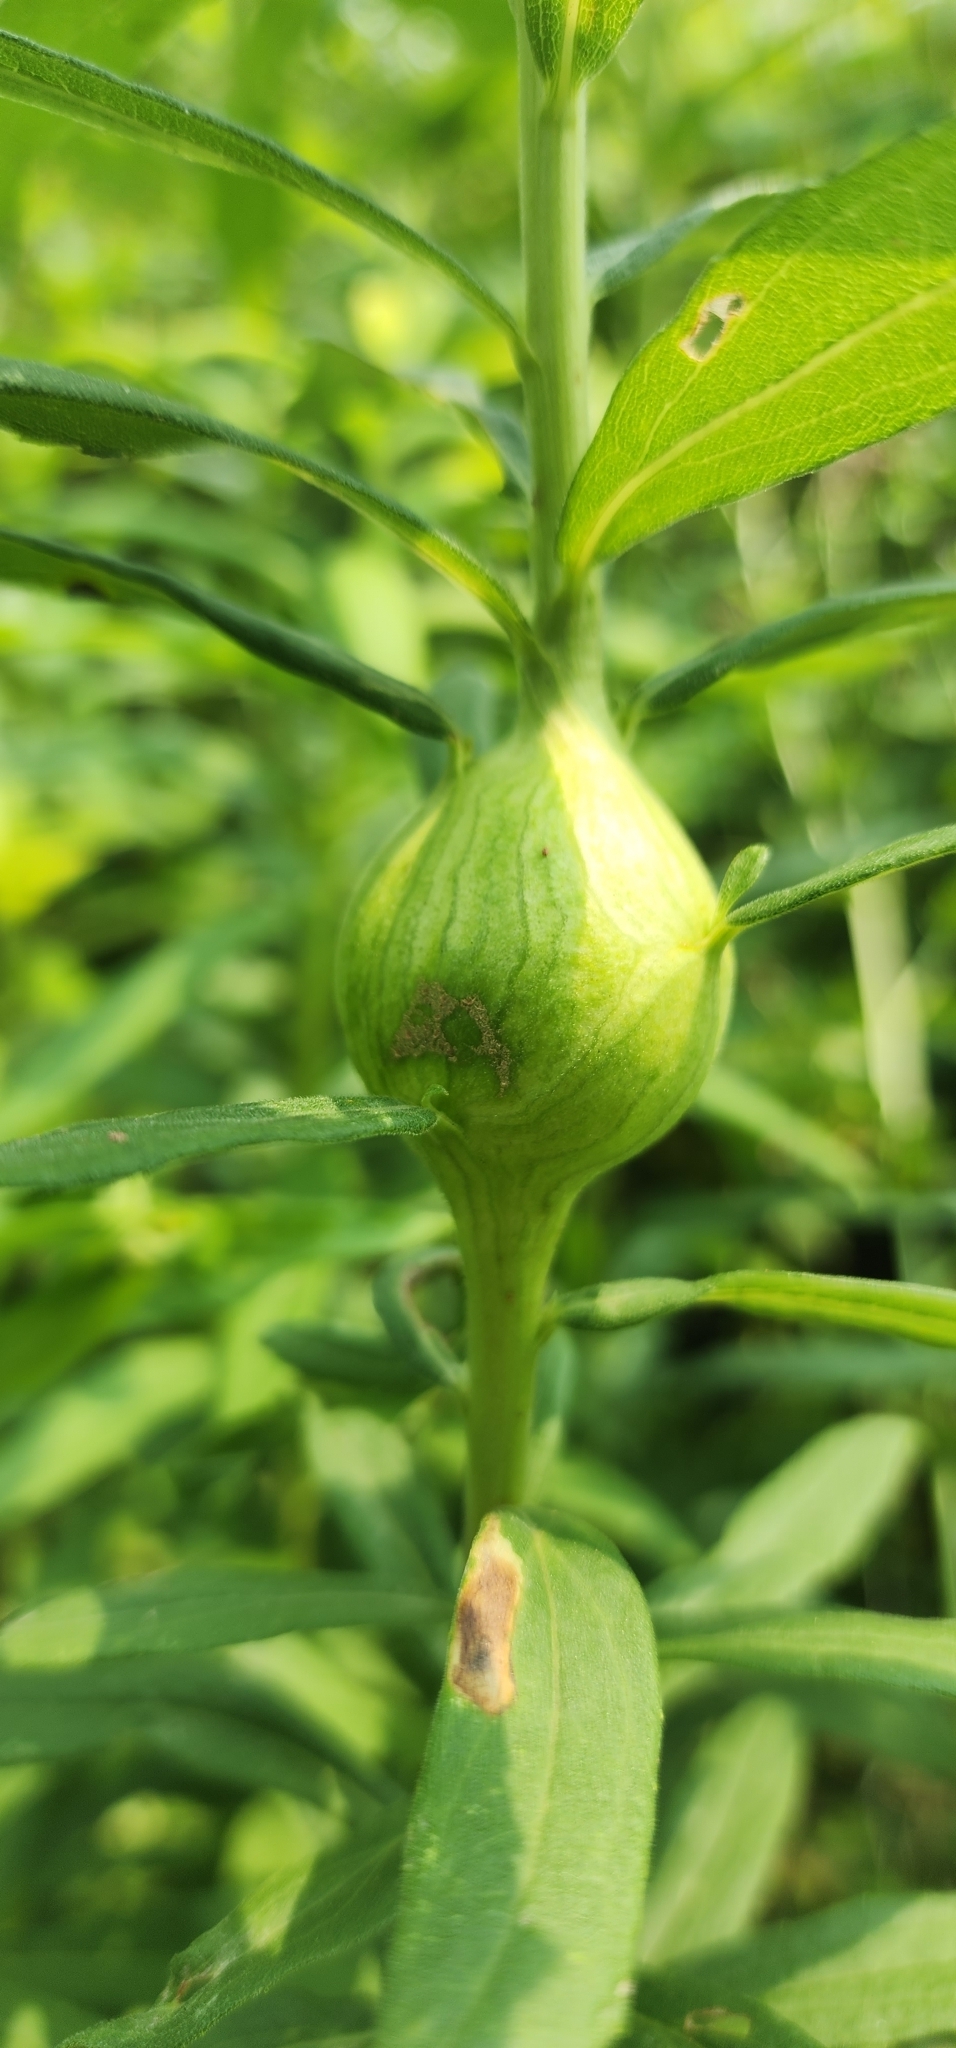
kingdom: Animalia
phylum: Arthropoda
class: Insecta
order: Diptera
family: Tephritidae
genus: Eurosta
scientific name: Eurosta solidaginis
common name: Goldenrod gall fly
